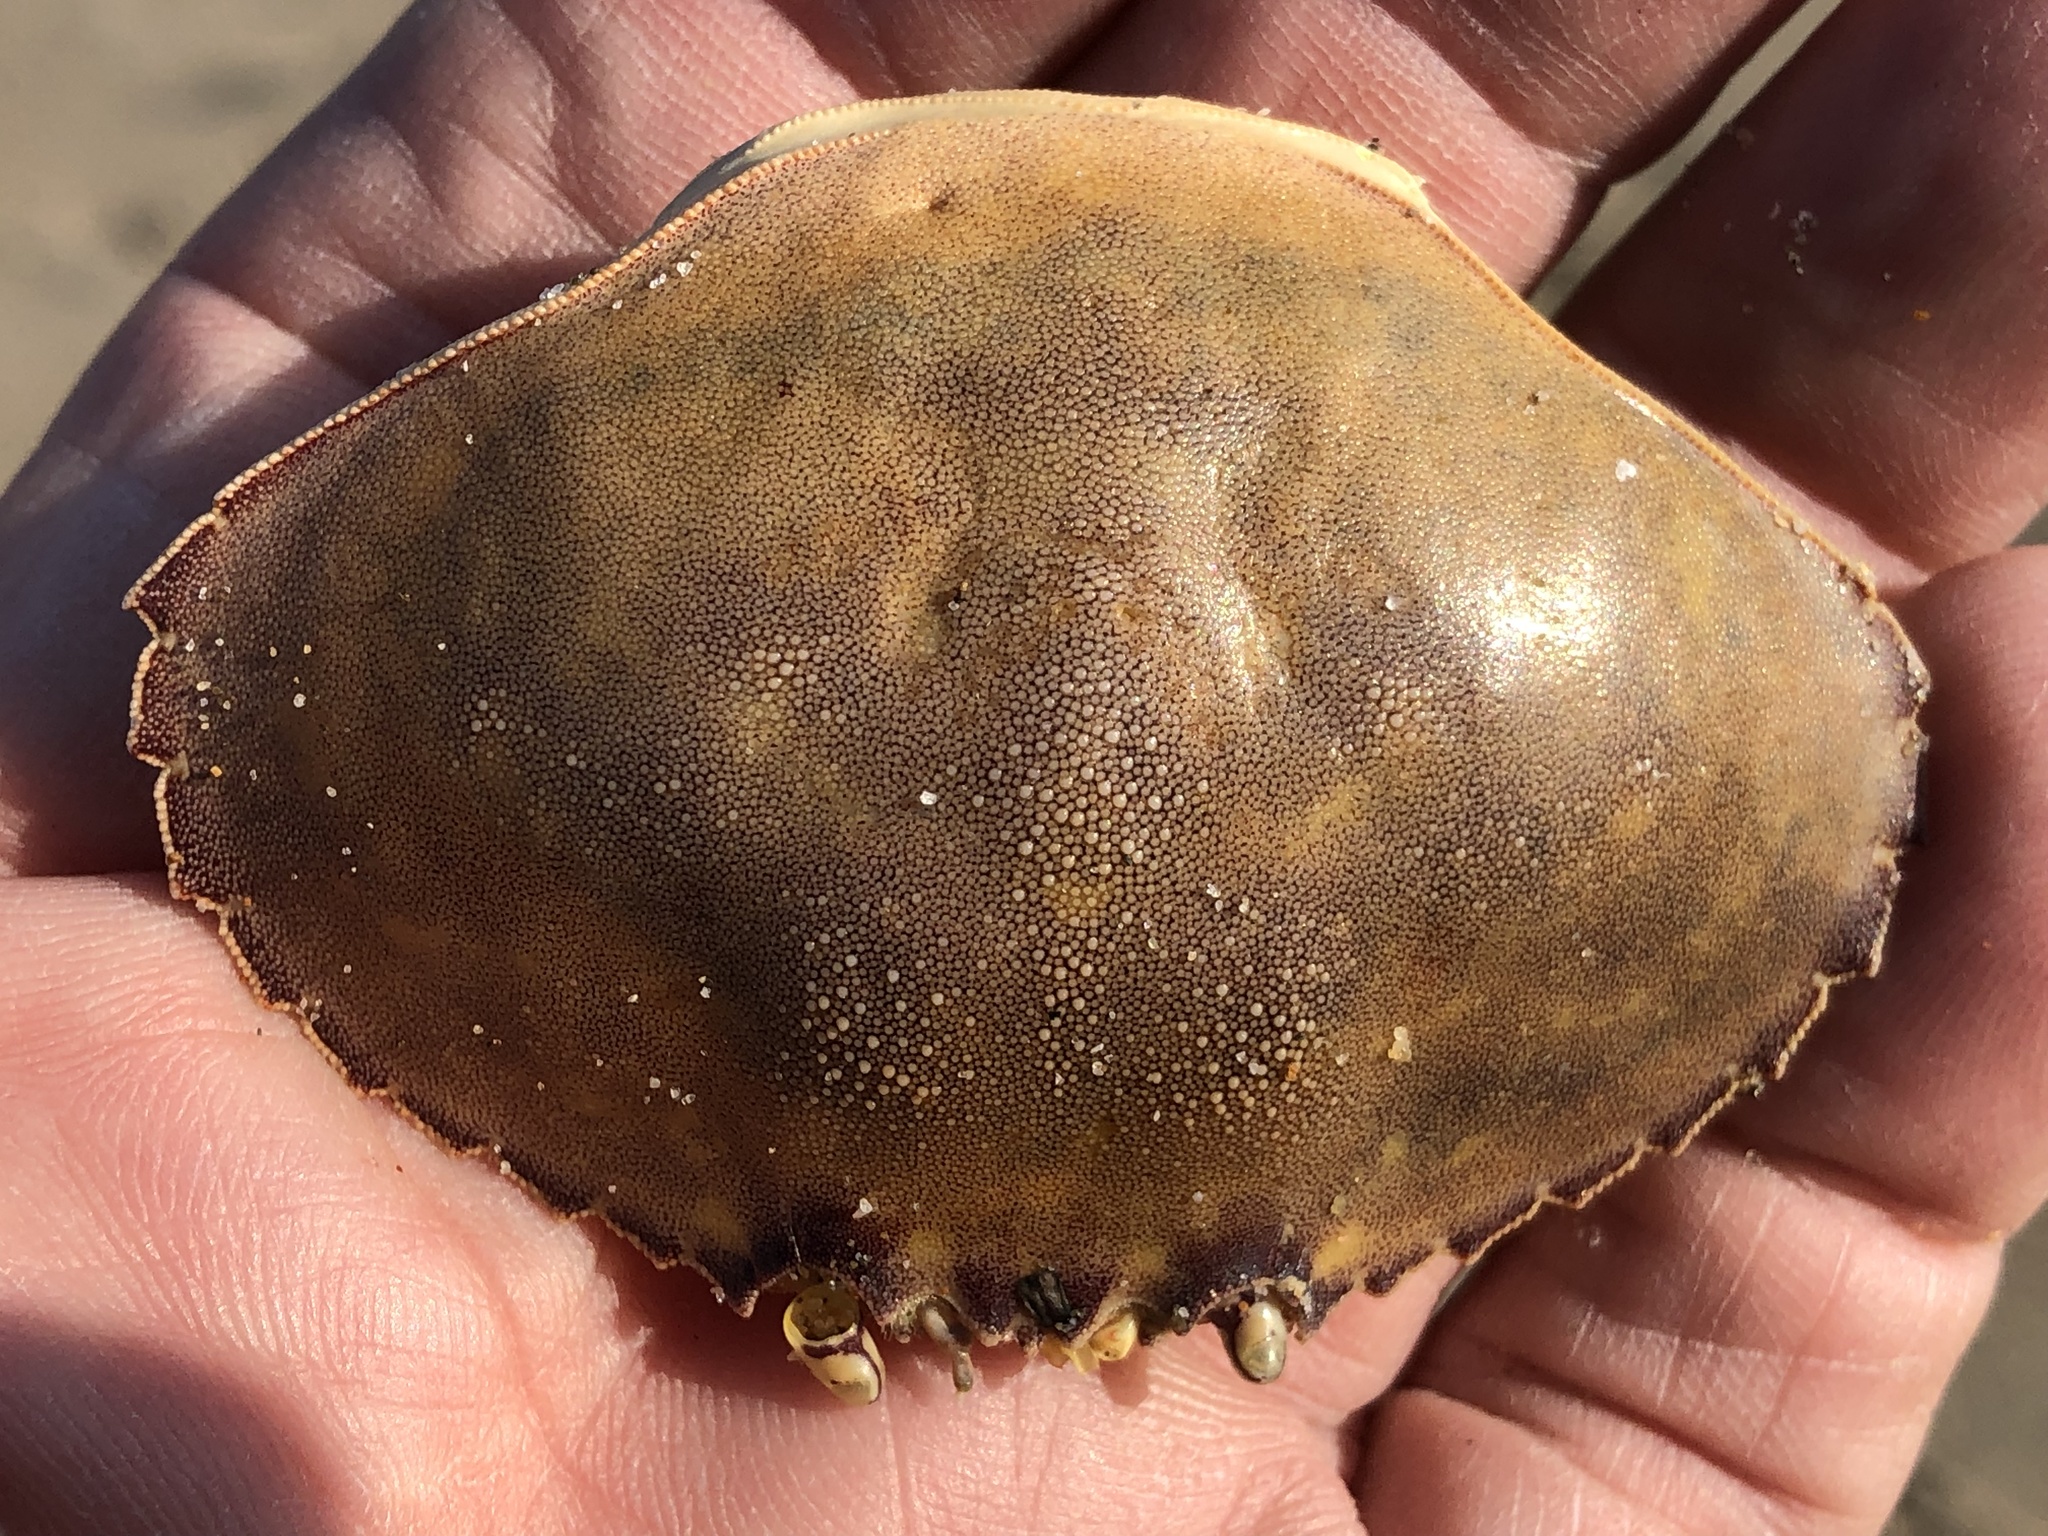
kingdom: Animalia
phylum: Arthropoda
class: Malacostraca
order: Decapoda
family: Cancridae
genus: Metacarcinus
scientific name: Metacarcinus gracilis
